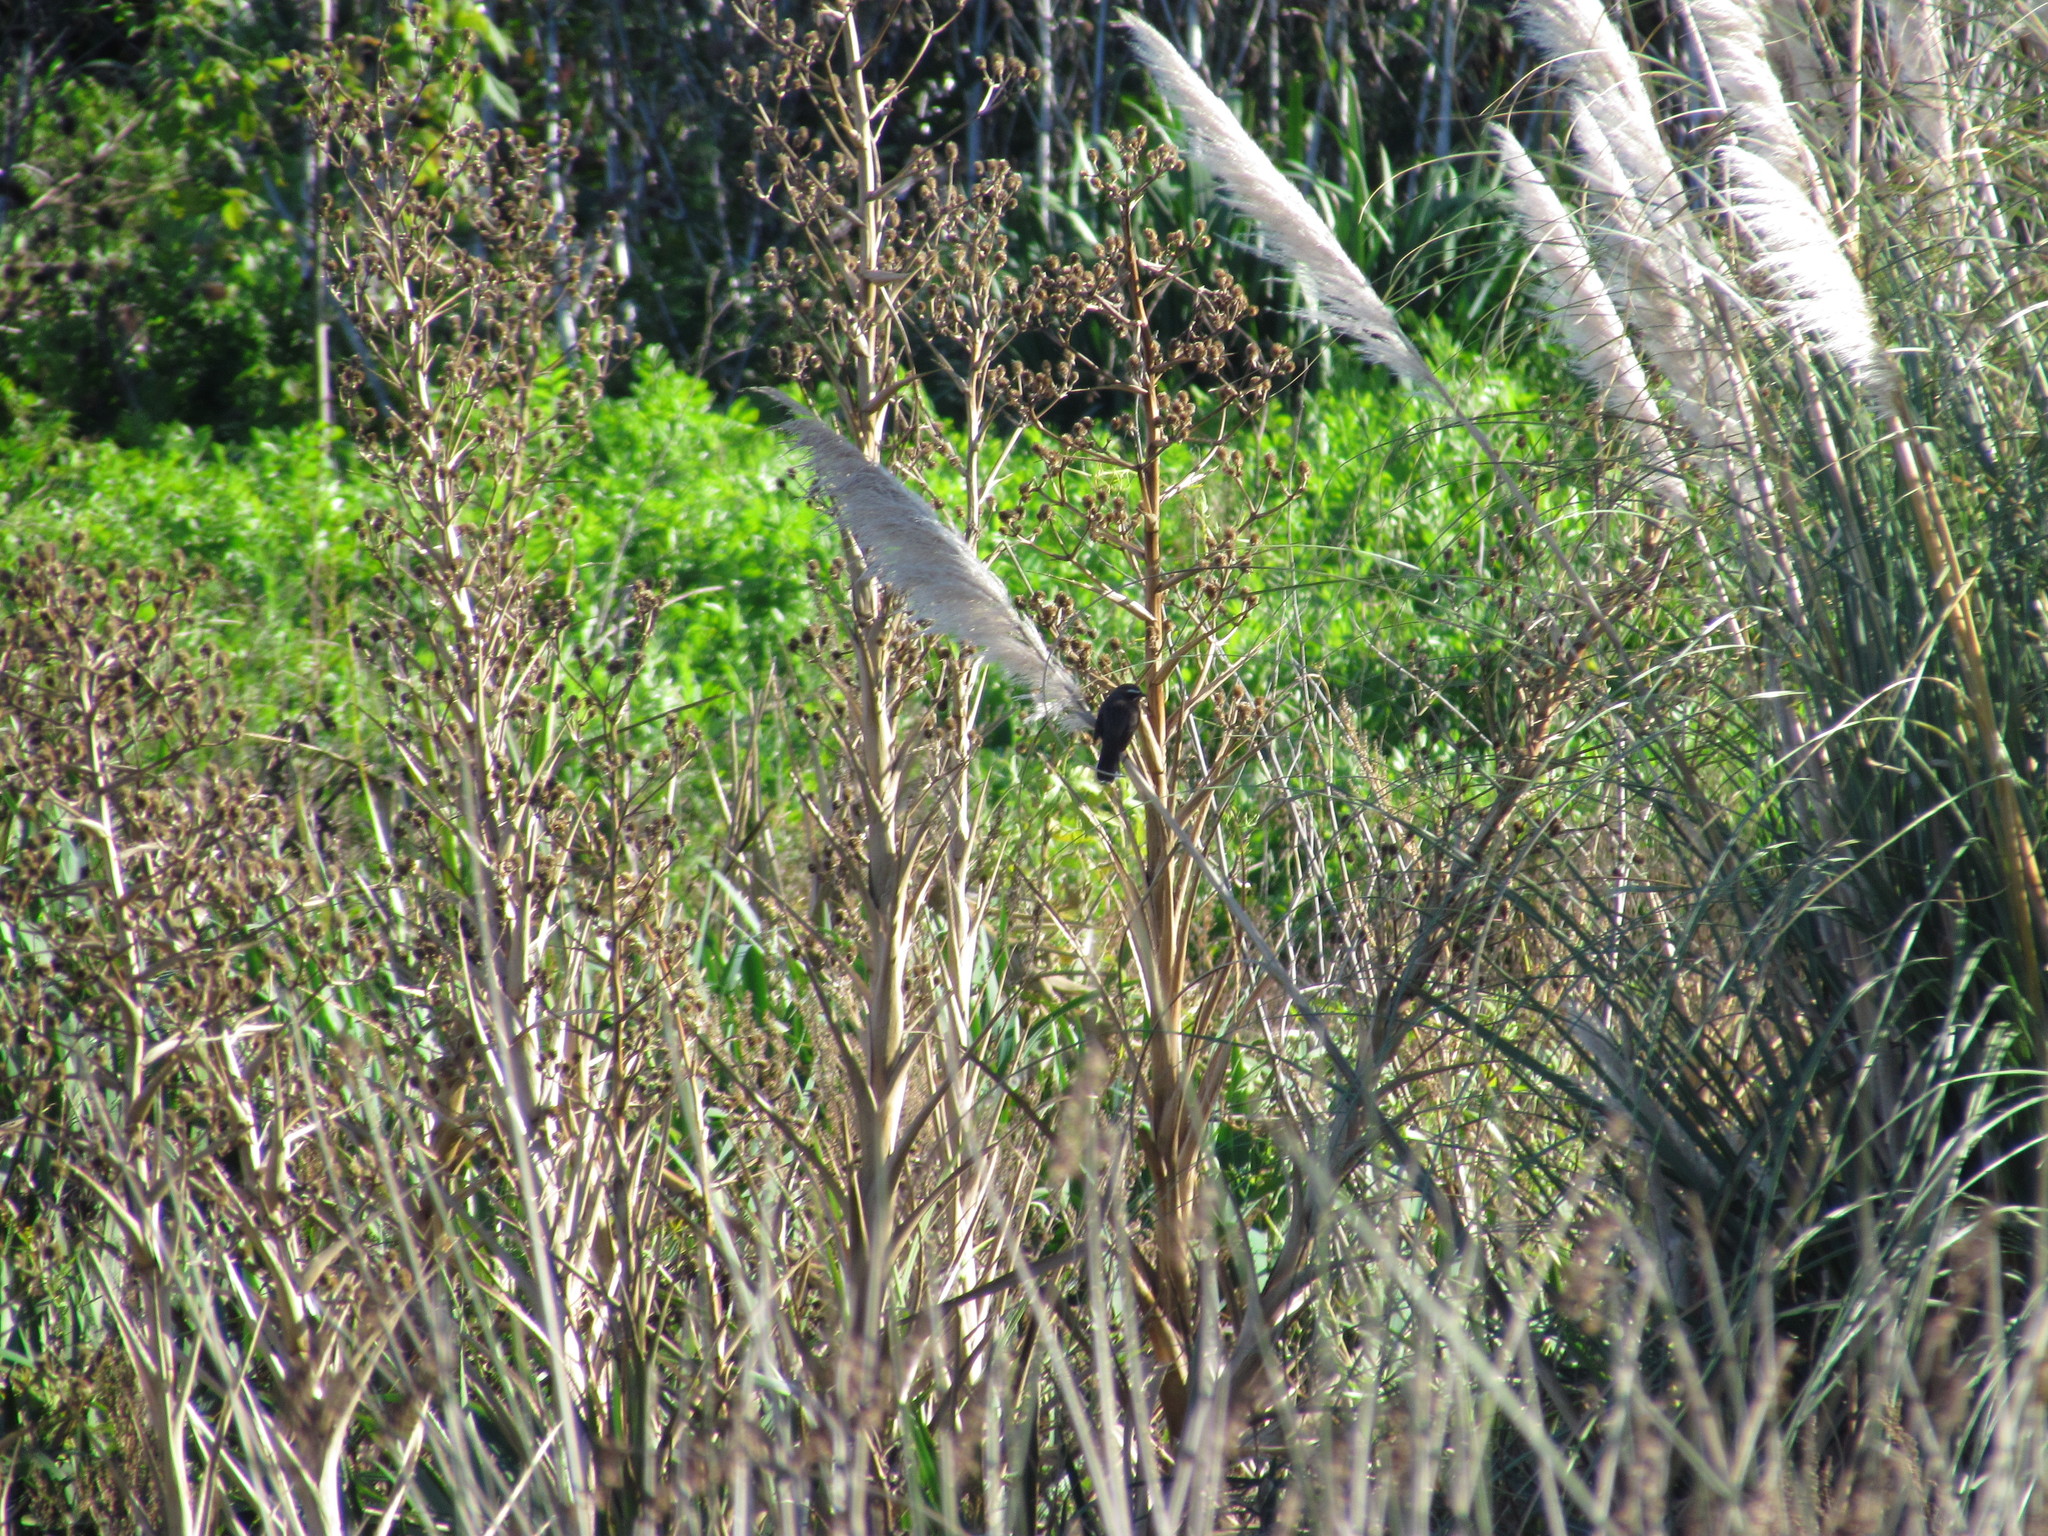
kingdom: Animalia
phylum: Chordata
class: Aves
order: Passeriformes
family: Thraupidae
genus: Poospiza
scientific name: Poospiza nigrorufa
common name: Black-and-rufous warbling finch
